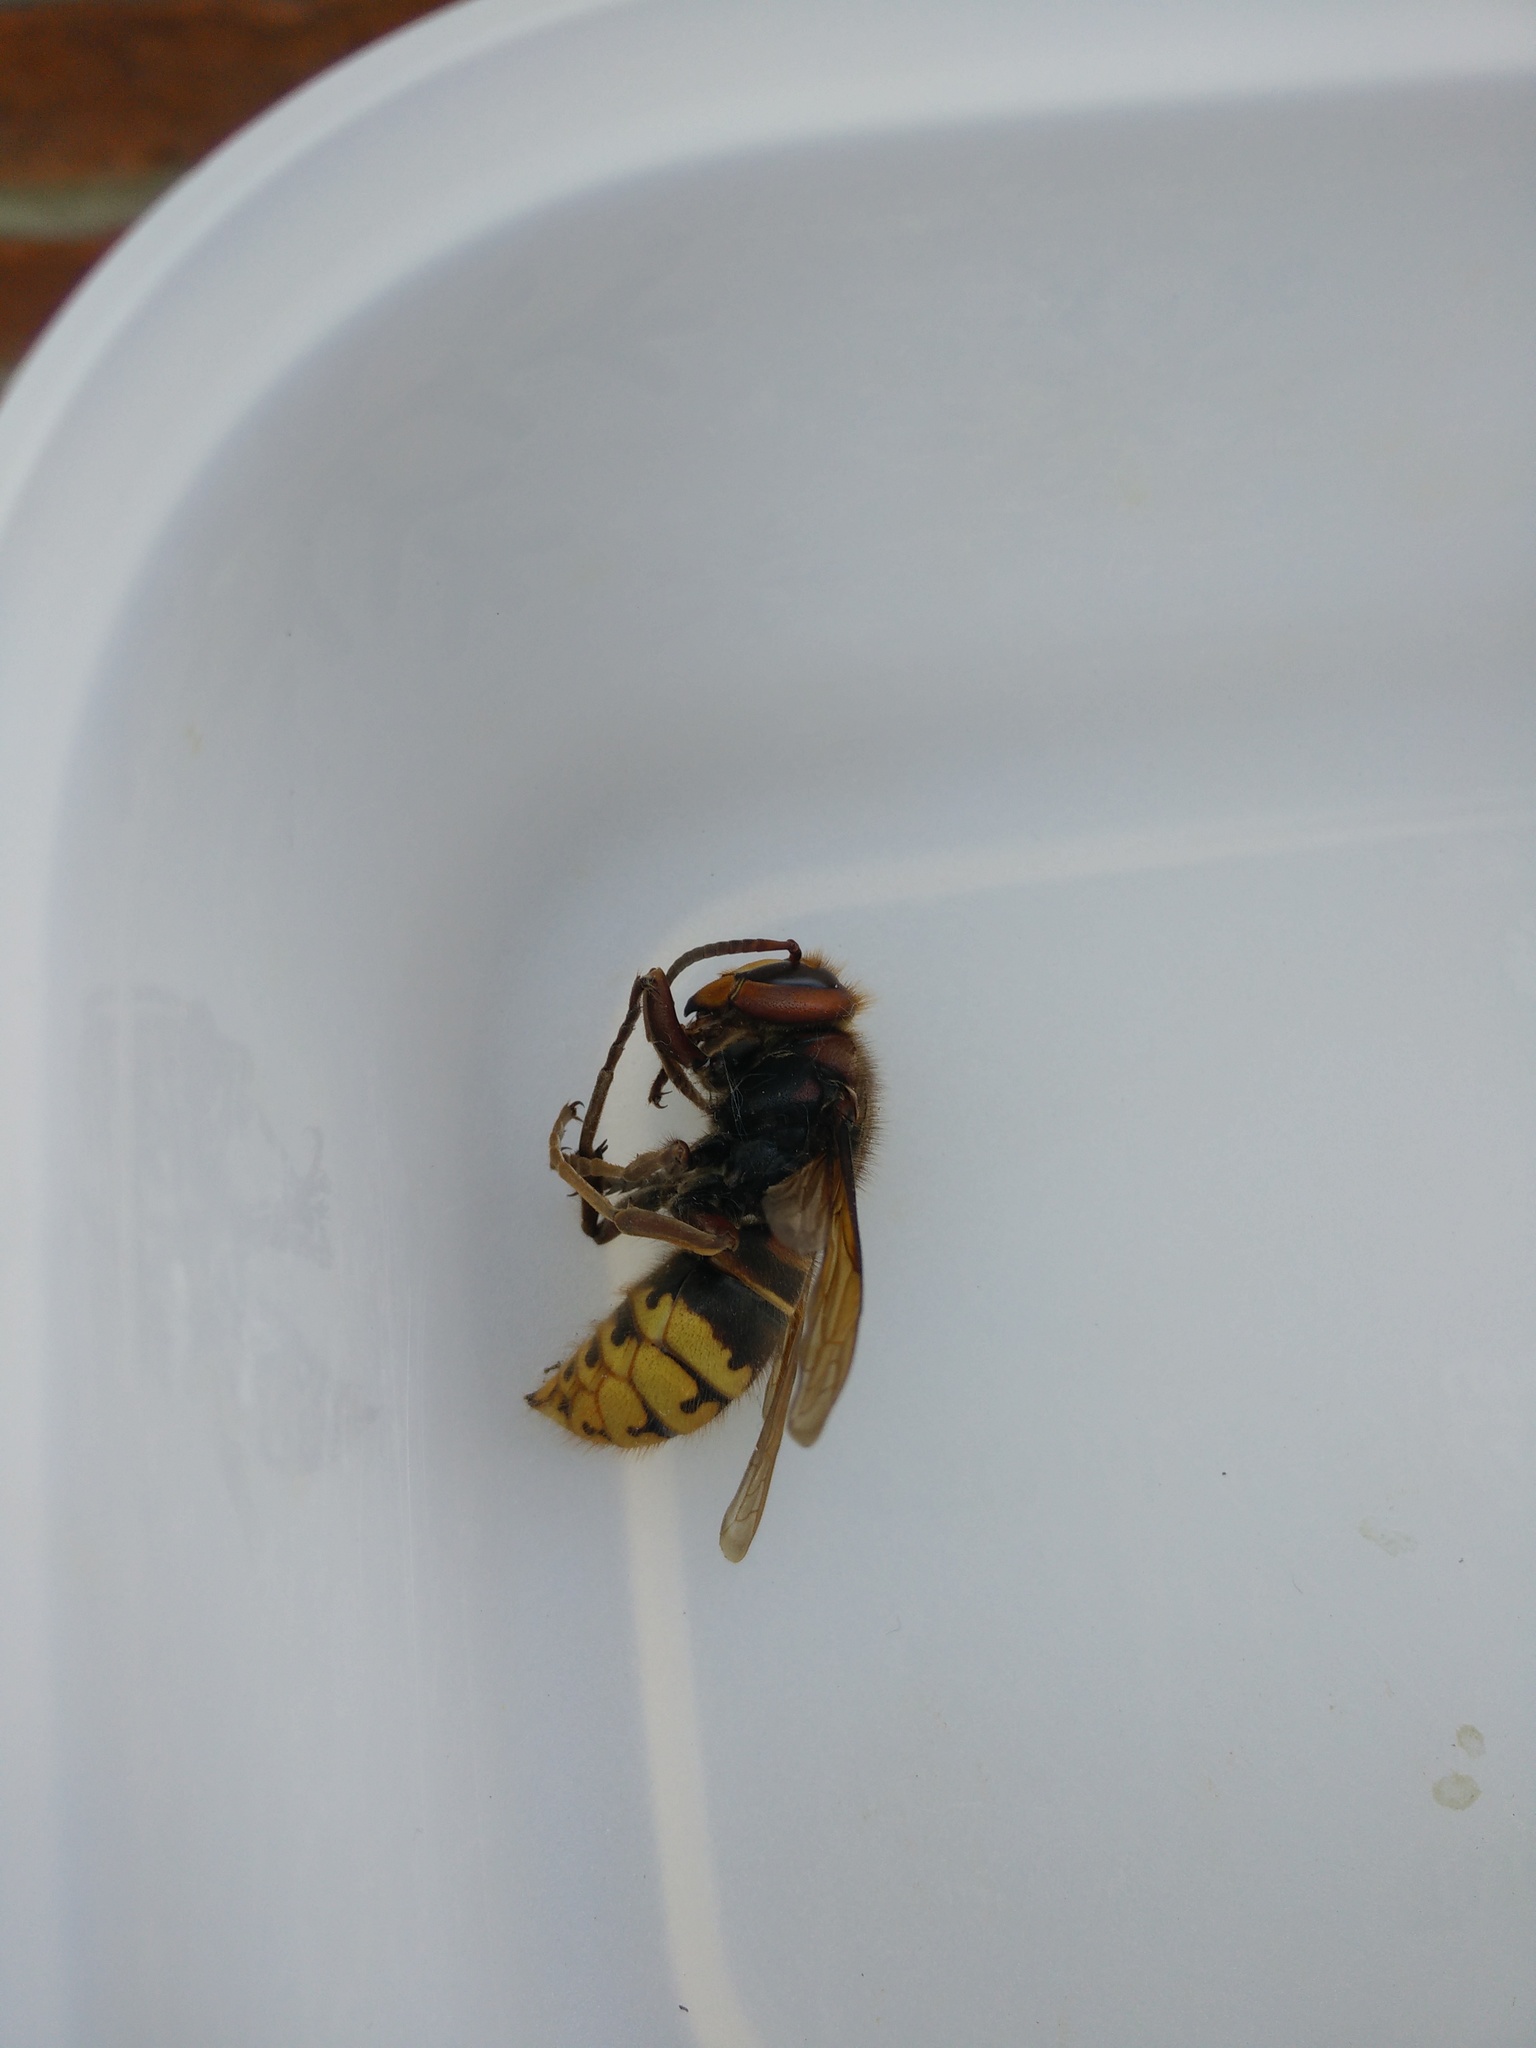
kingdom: Animalia
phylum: Arthropoda
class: Insecta
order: Hymenoptera
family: Vespidae
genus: Vespa
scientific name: Vespa crabro
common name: Hornet
